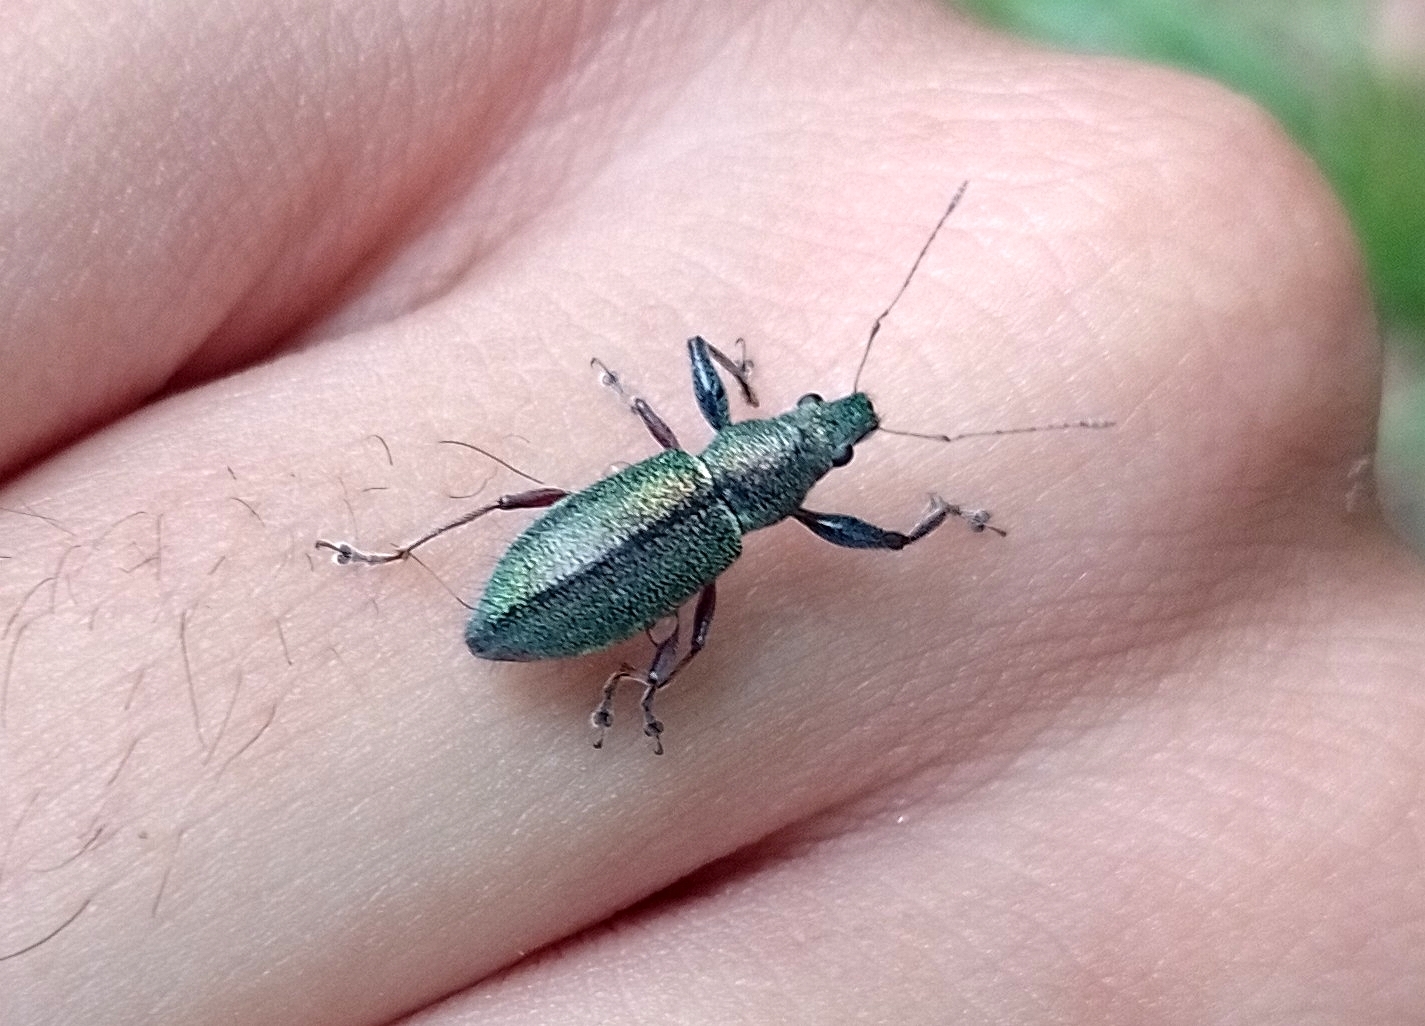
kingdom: Animalia
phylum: Arthropoda
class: Insecta
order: Coleoptera
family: Curculionidae
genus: Naupactus
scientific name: Naupactus auricinctus
